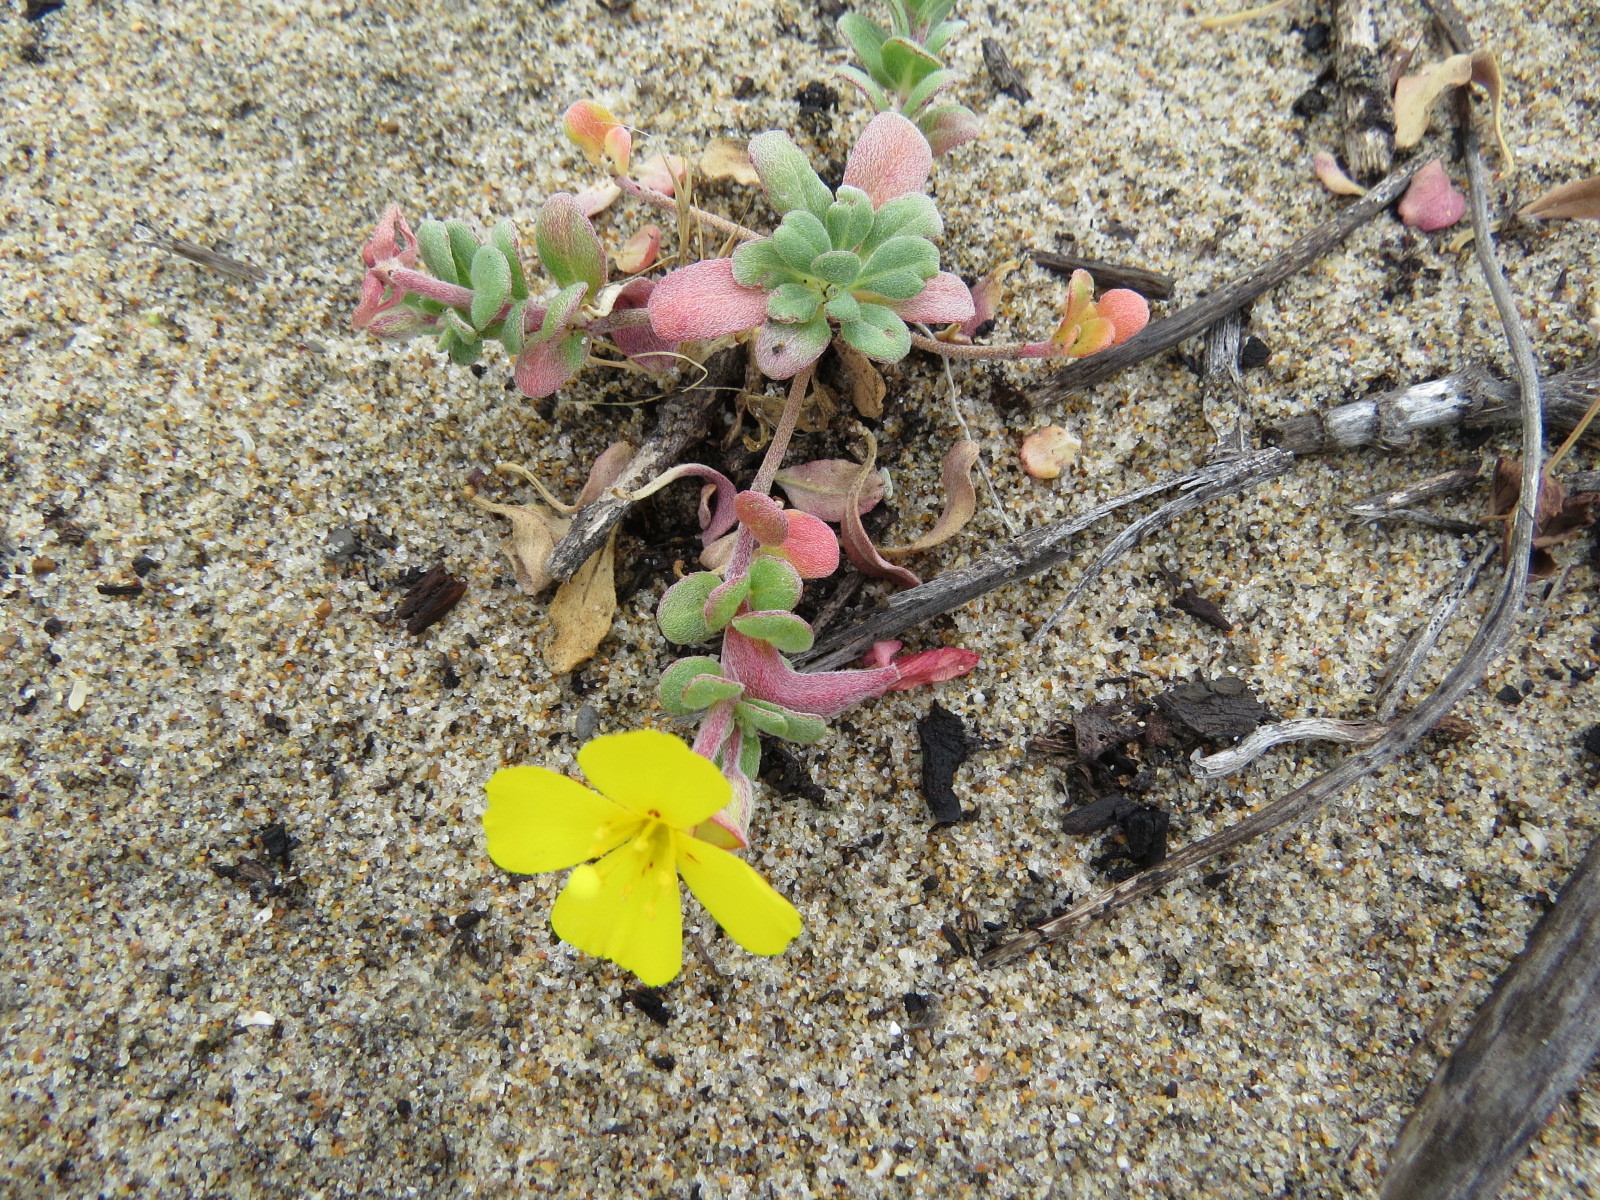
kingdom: Plantae
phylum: Tracheophyta
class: Magnoliopsida
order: Myrtales
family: Onagraceae
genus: Camissoniopsis
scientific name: Camissoniopsis cheiranthifolia
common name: Beach suncup
